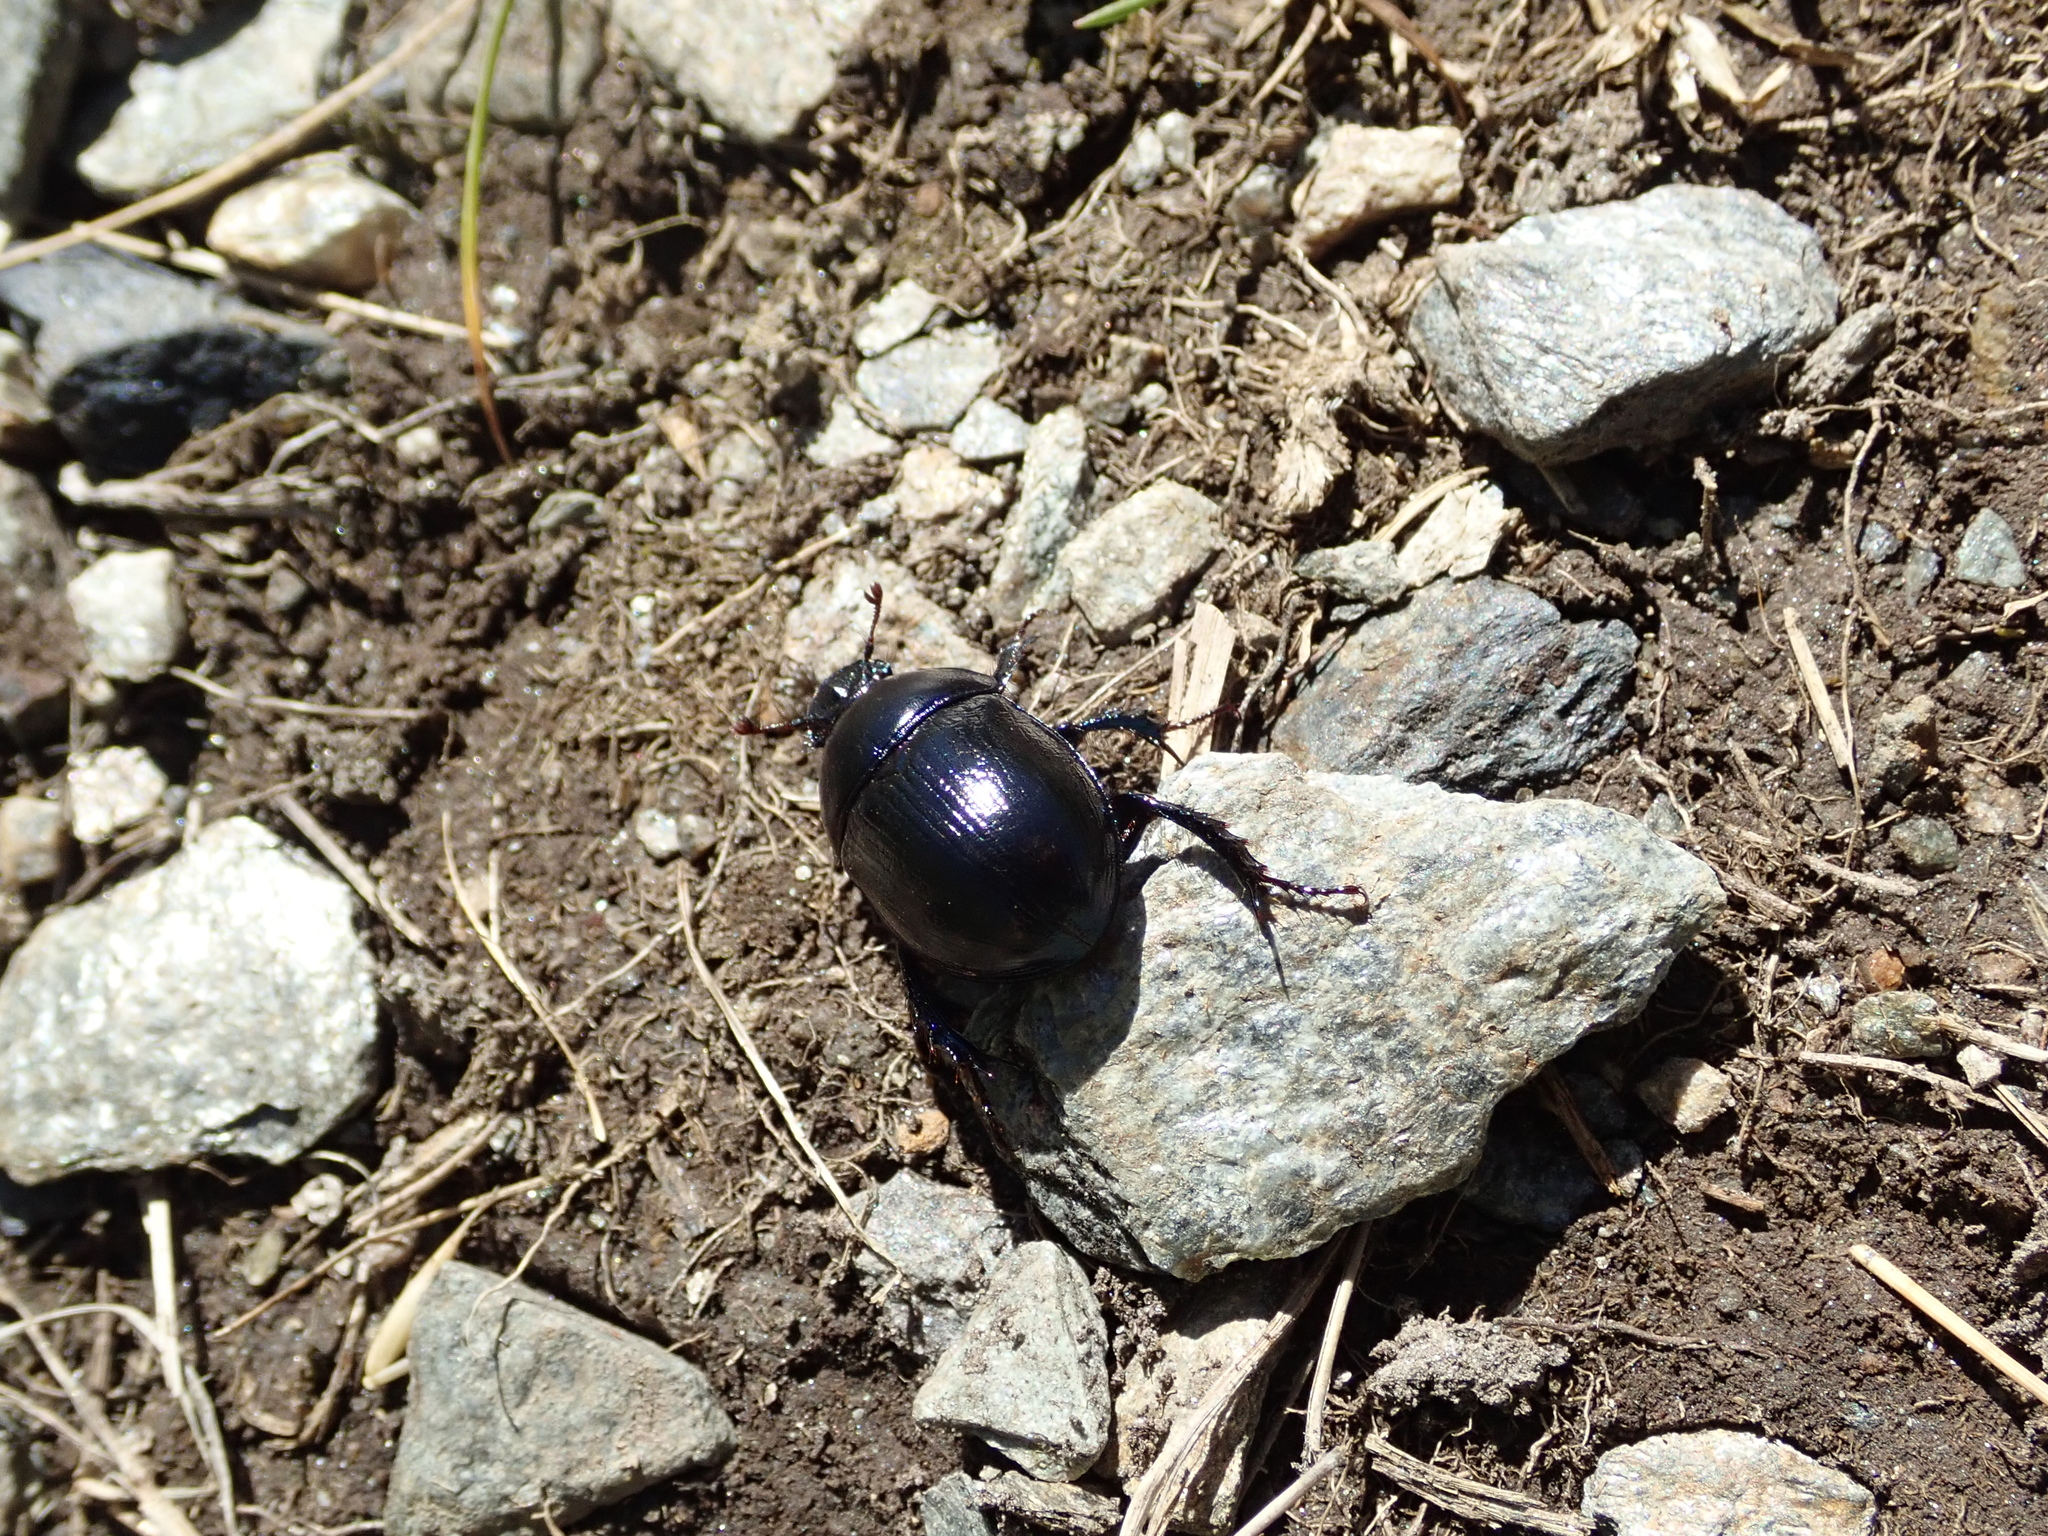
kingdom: Animalia
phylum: Arthropoda
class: Insecta
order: Coleoptera
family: Geotrupidae
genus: Anoplotrupes
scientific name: Anoplotrupes stercorosus
